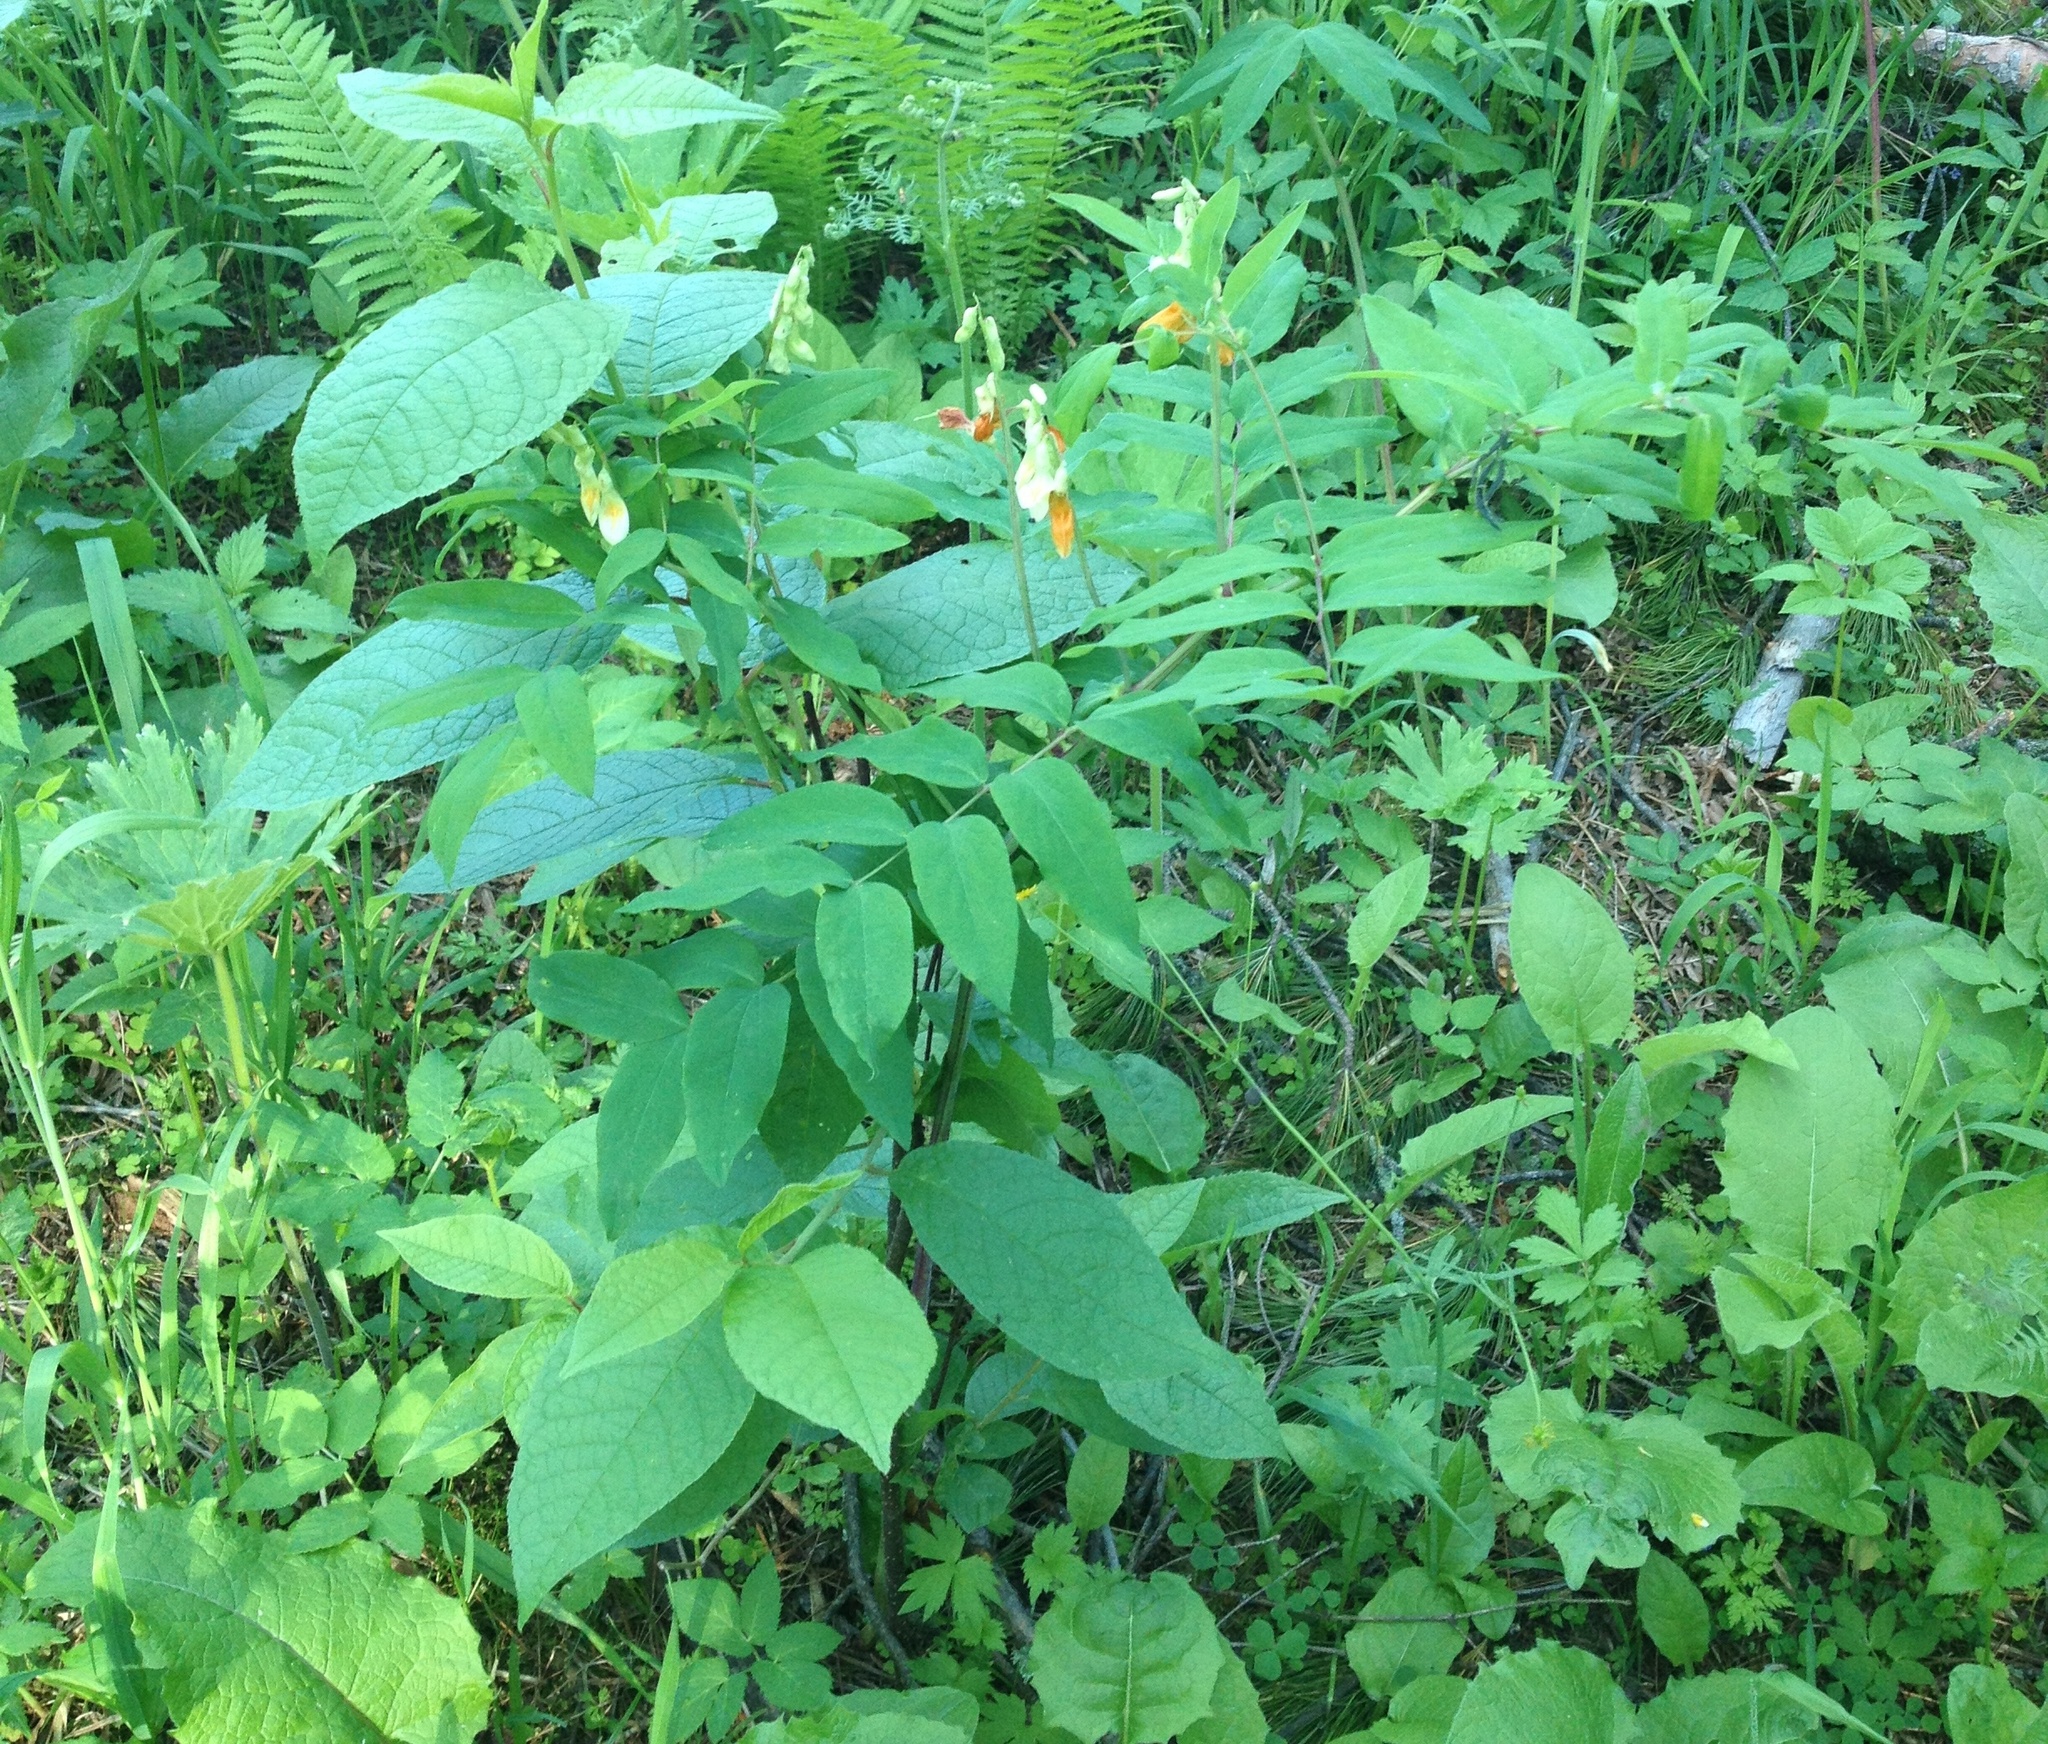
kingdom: Plantae
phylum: Tracheophyta
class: Magnoliopsida
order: Fabales
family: Fabaceae
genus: Lathyrus
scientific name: Lathyrus gmelinii
